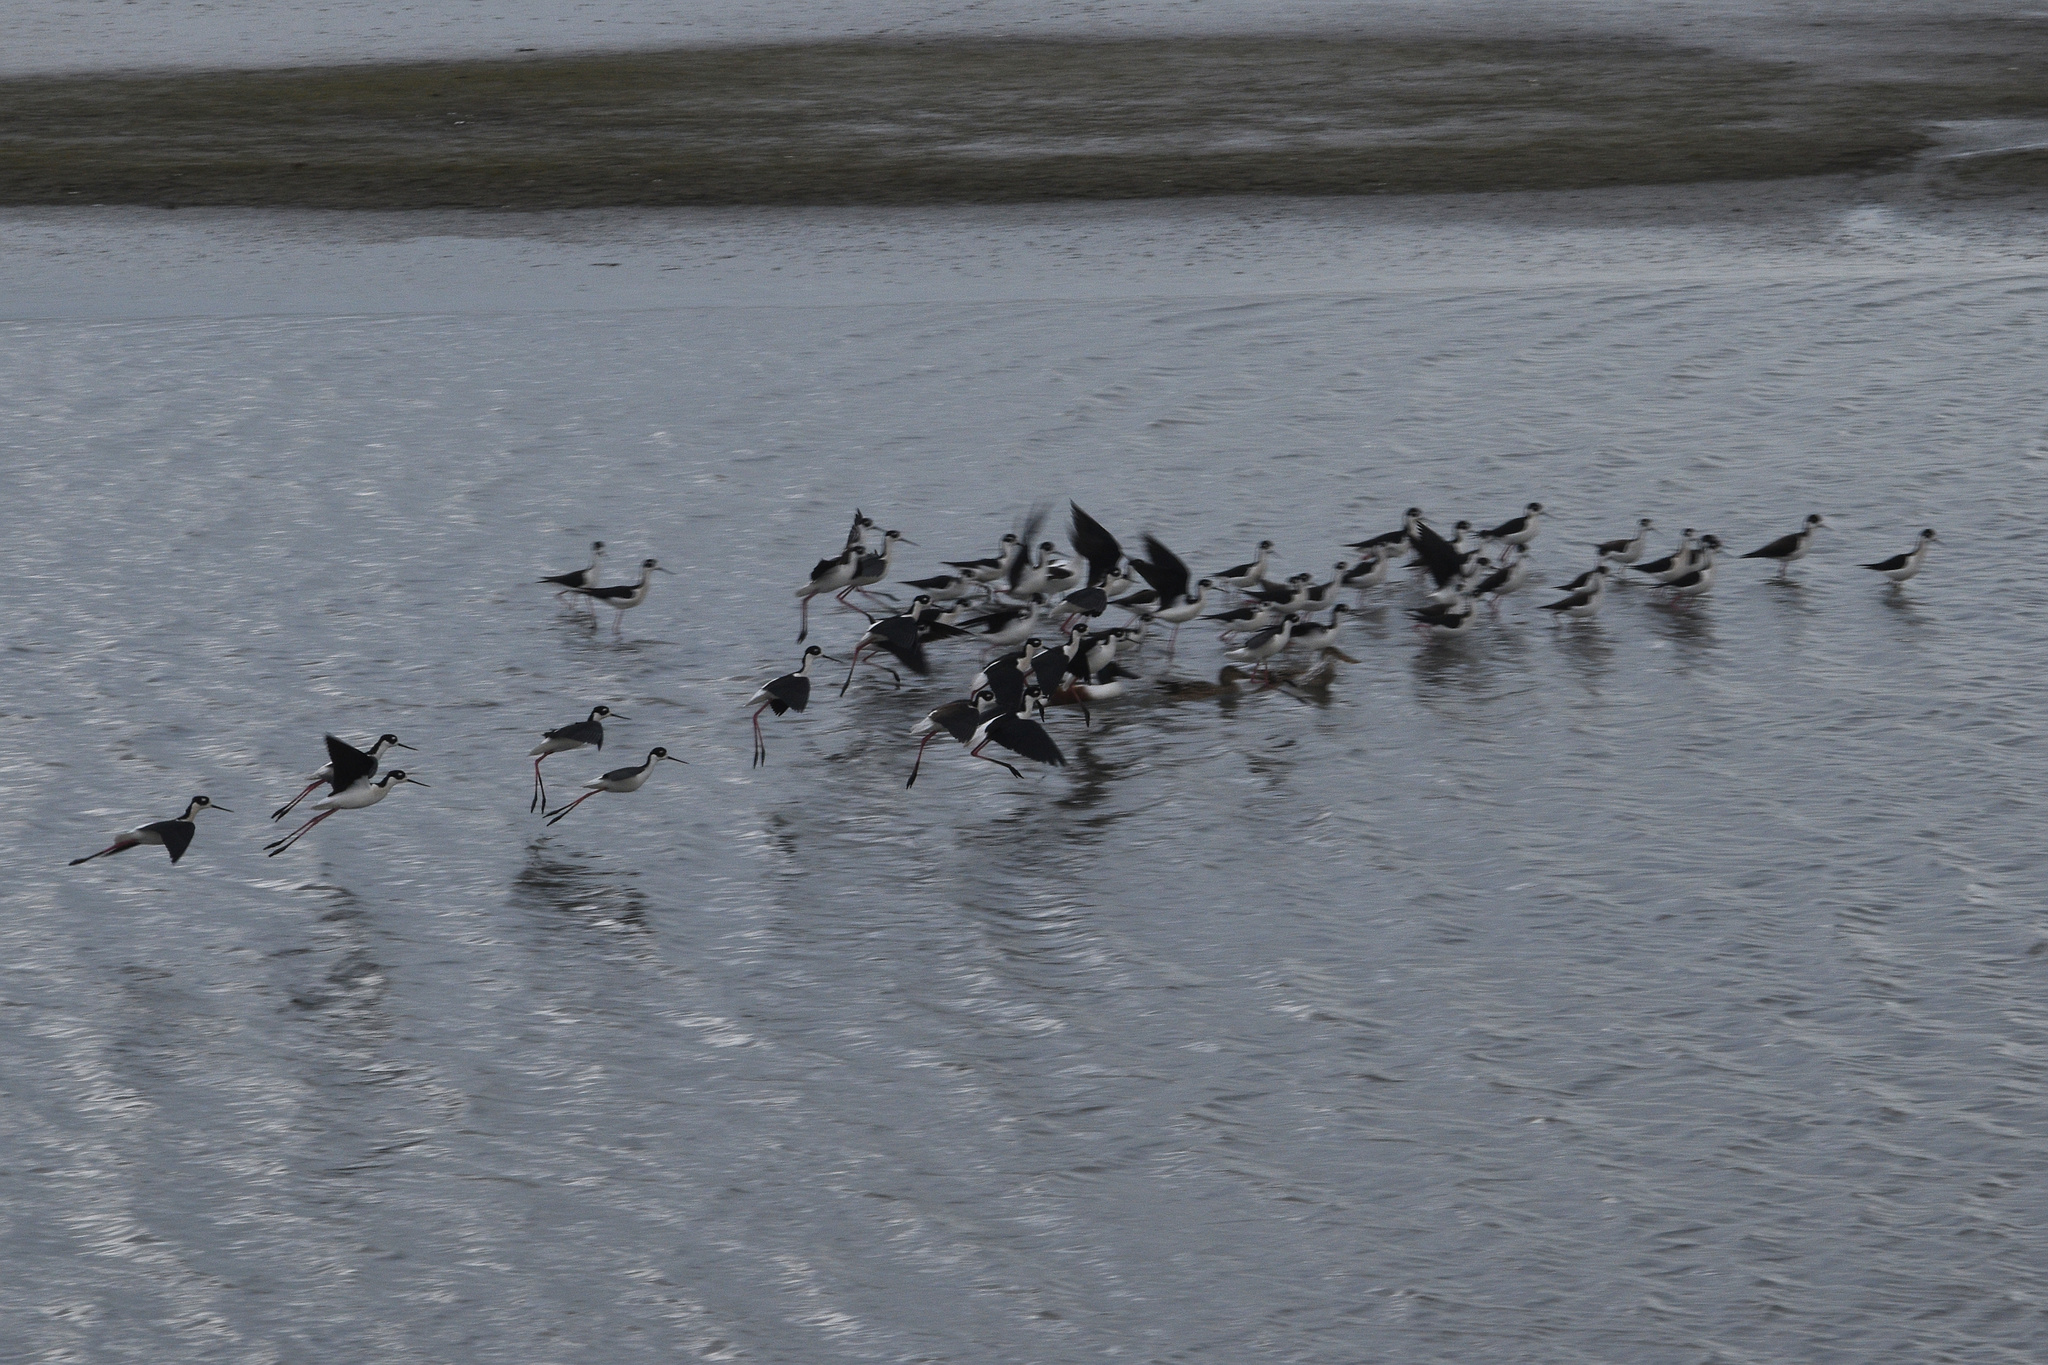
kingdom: Animalia
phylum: Chordata
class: Aves
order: Charadriiformes
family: Recurvirostridae
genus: Himantopus
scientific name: Himantopus mexicanus
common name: Black-necked stilt
